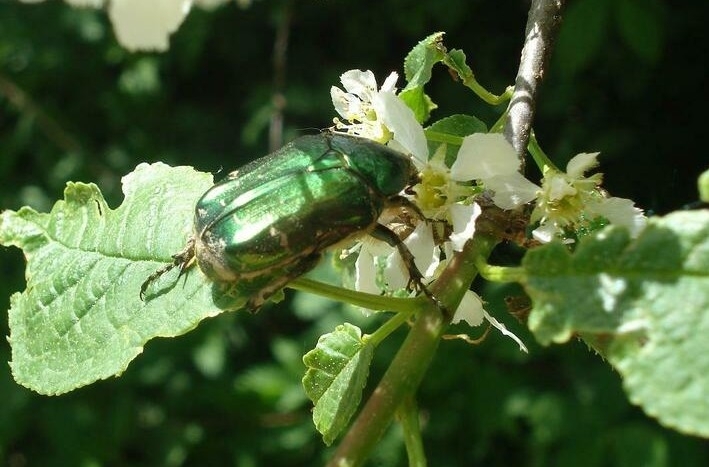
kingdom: Animalia
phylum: Arthropoda
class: Insecta
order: Coleoptera
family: Scarabaeidae
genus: Cetonia
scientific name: Cetonia aurata
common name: Rose chafer
